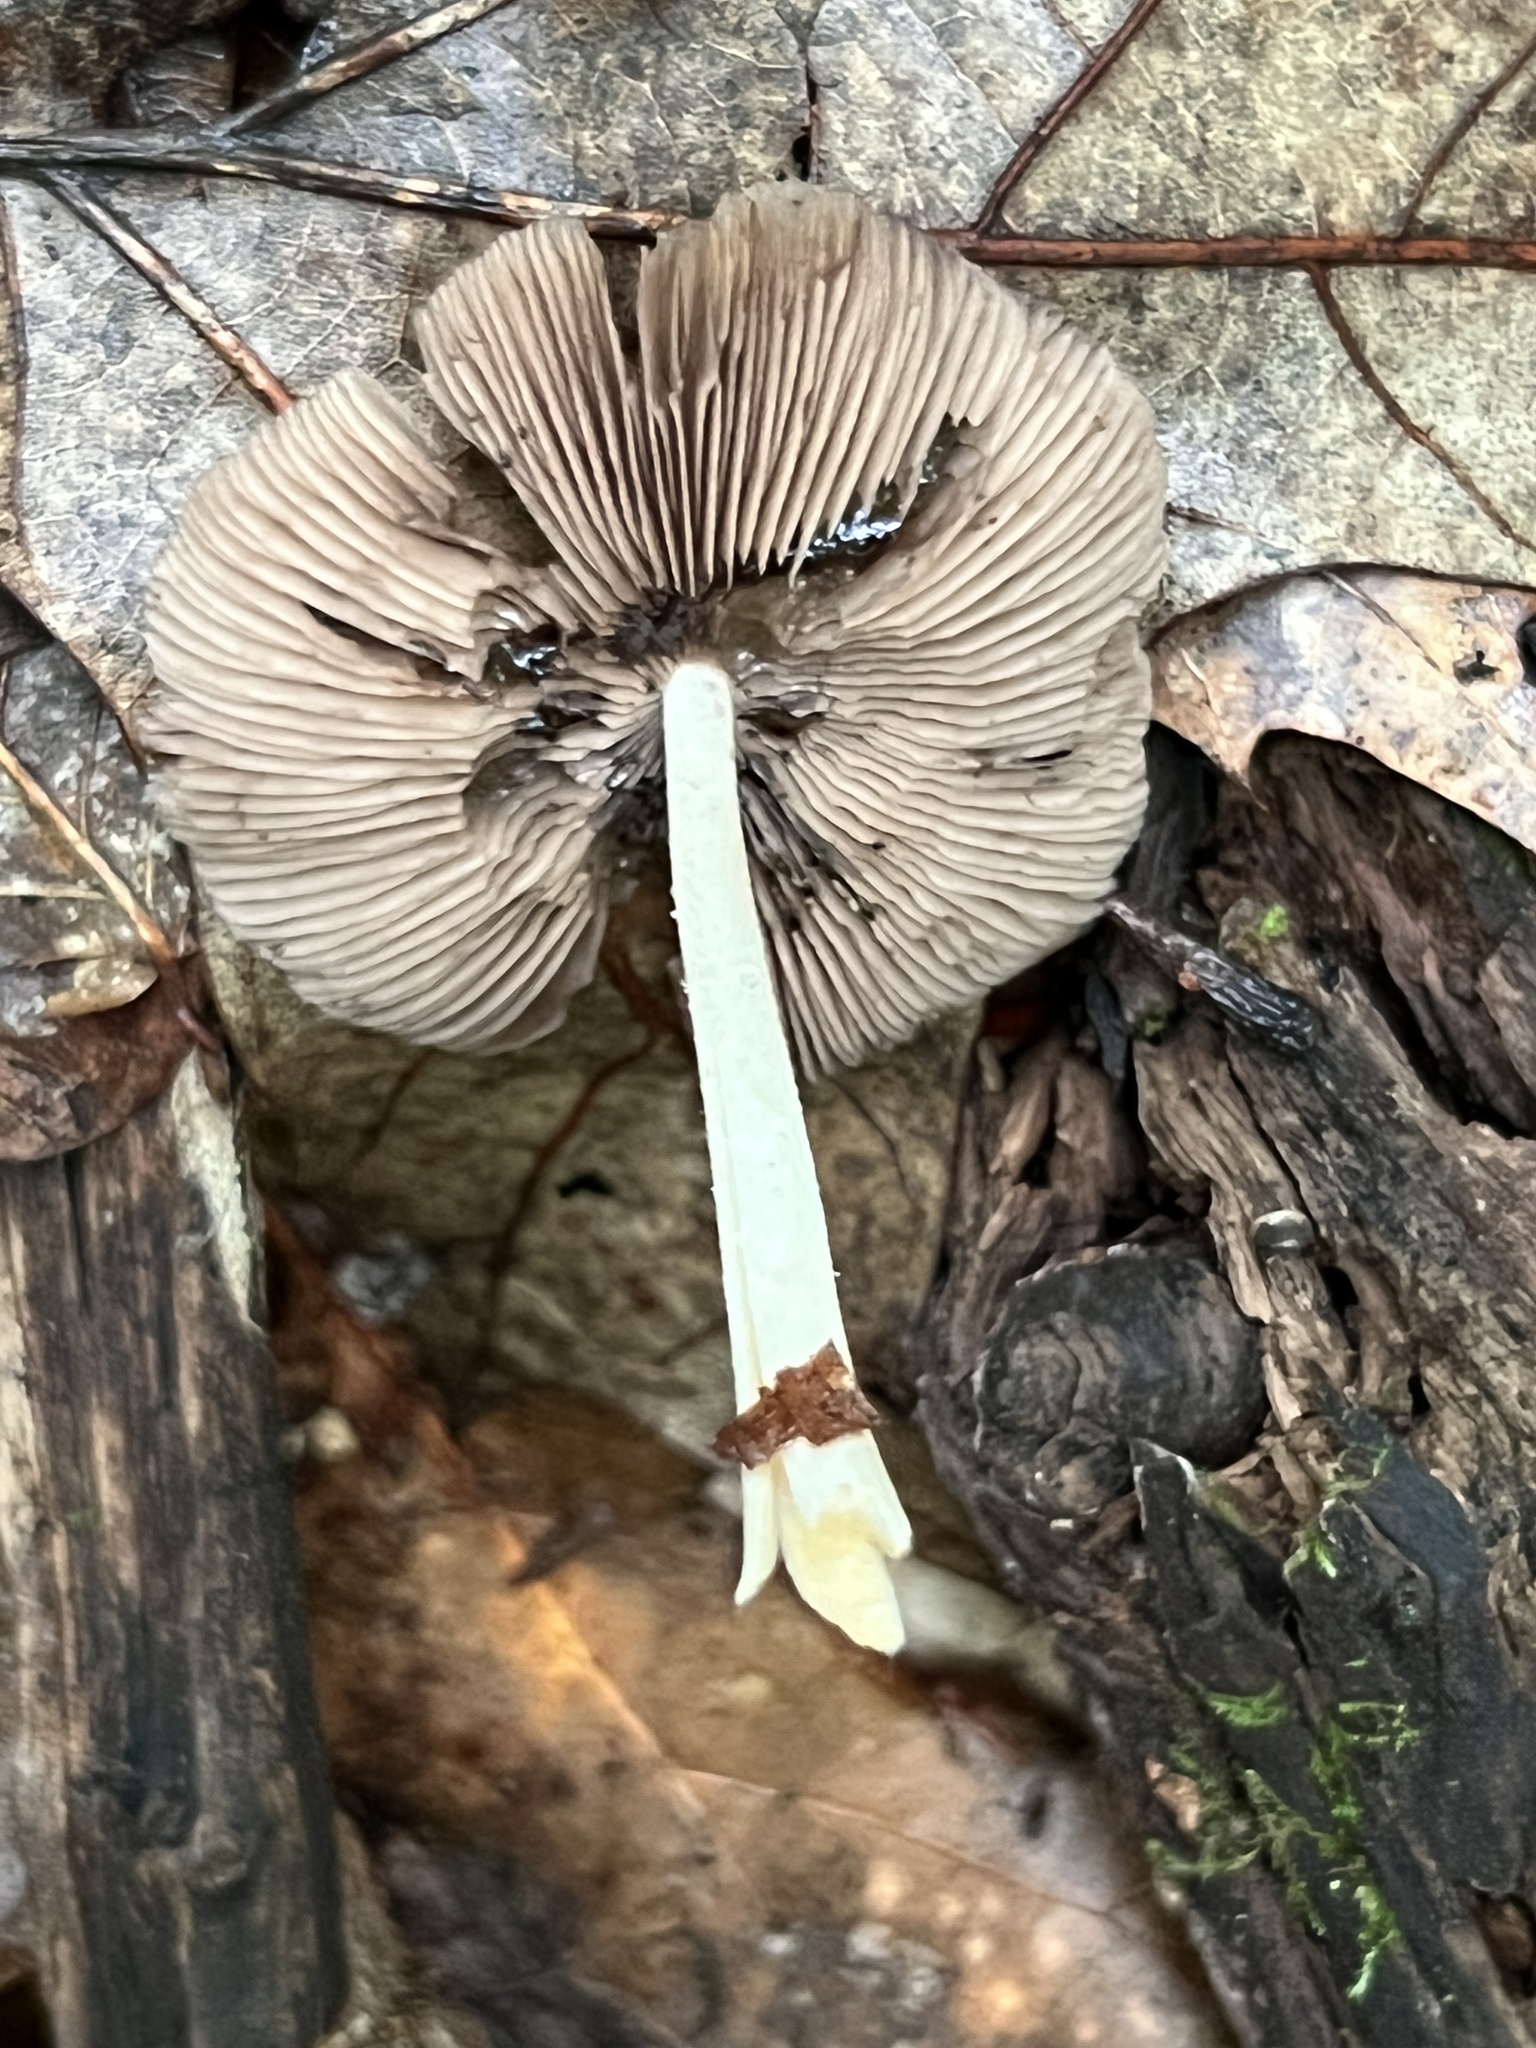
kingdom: Fungi
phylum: Basidiomycota
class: Agaricomycetes
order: Agaricales
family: Psathyrellaceae
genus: Candolleomyces
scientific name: Candolleomyces candolleanus
